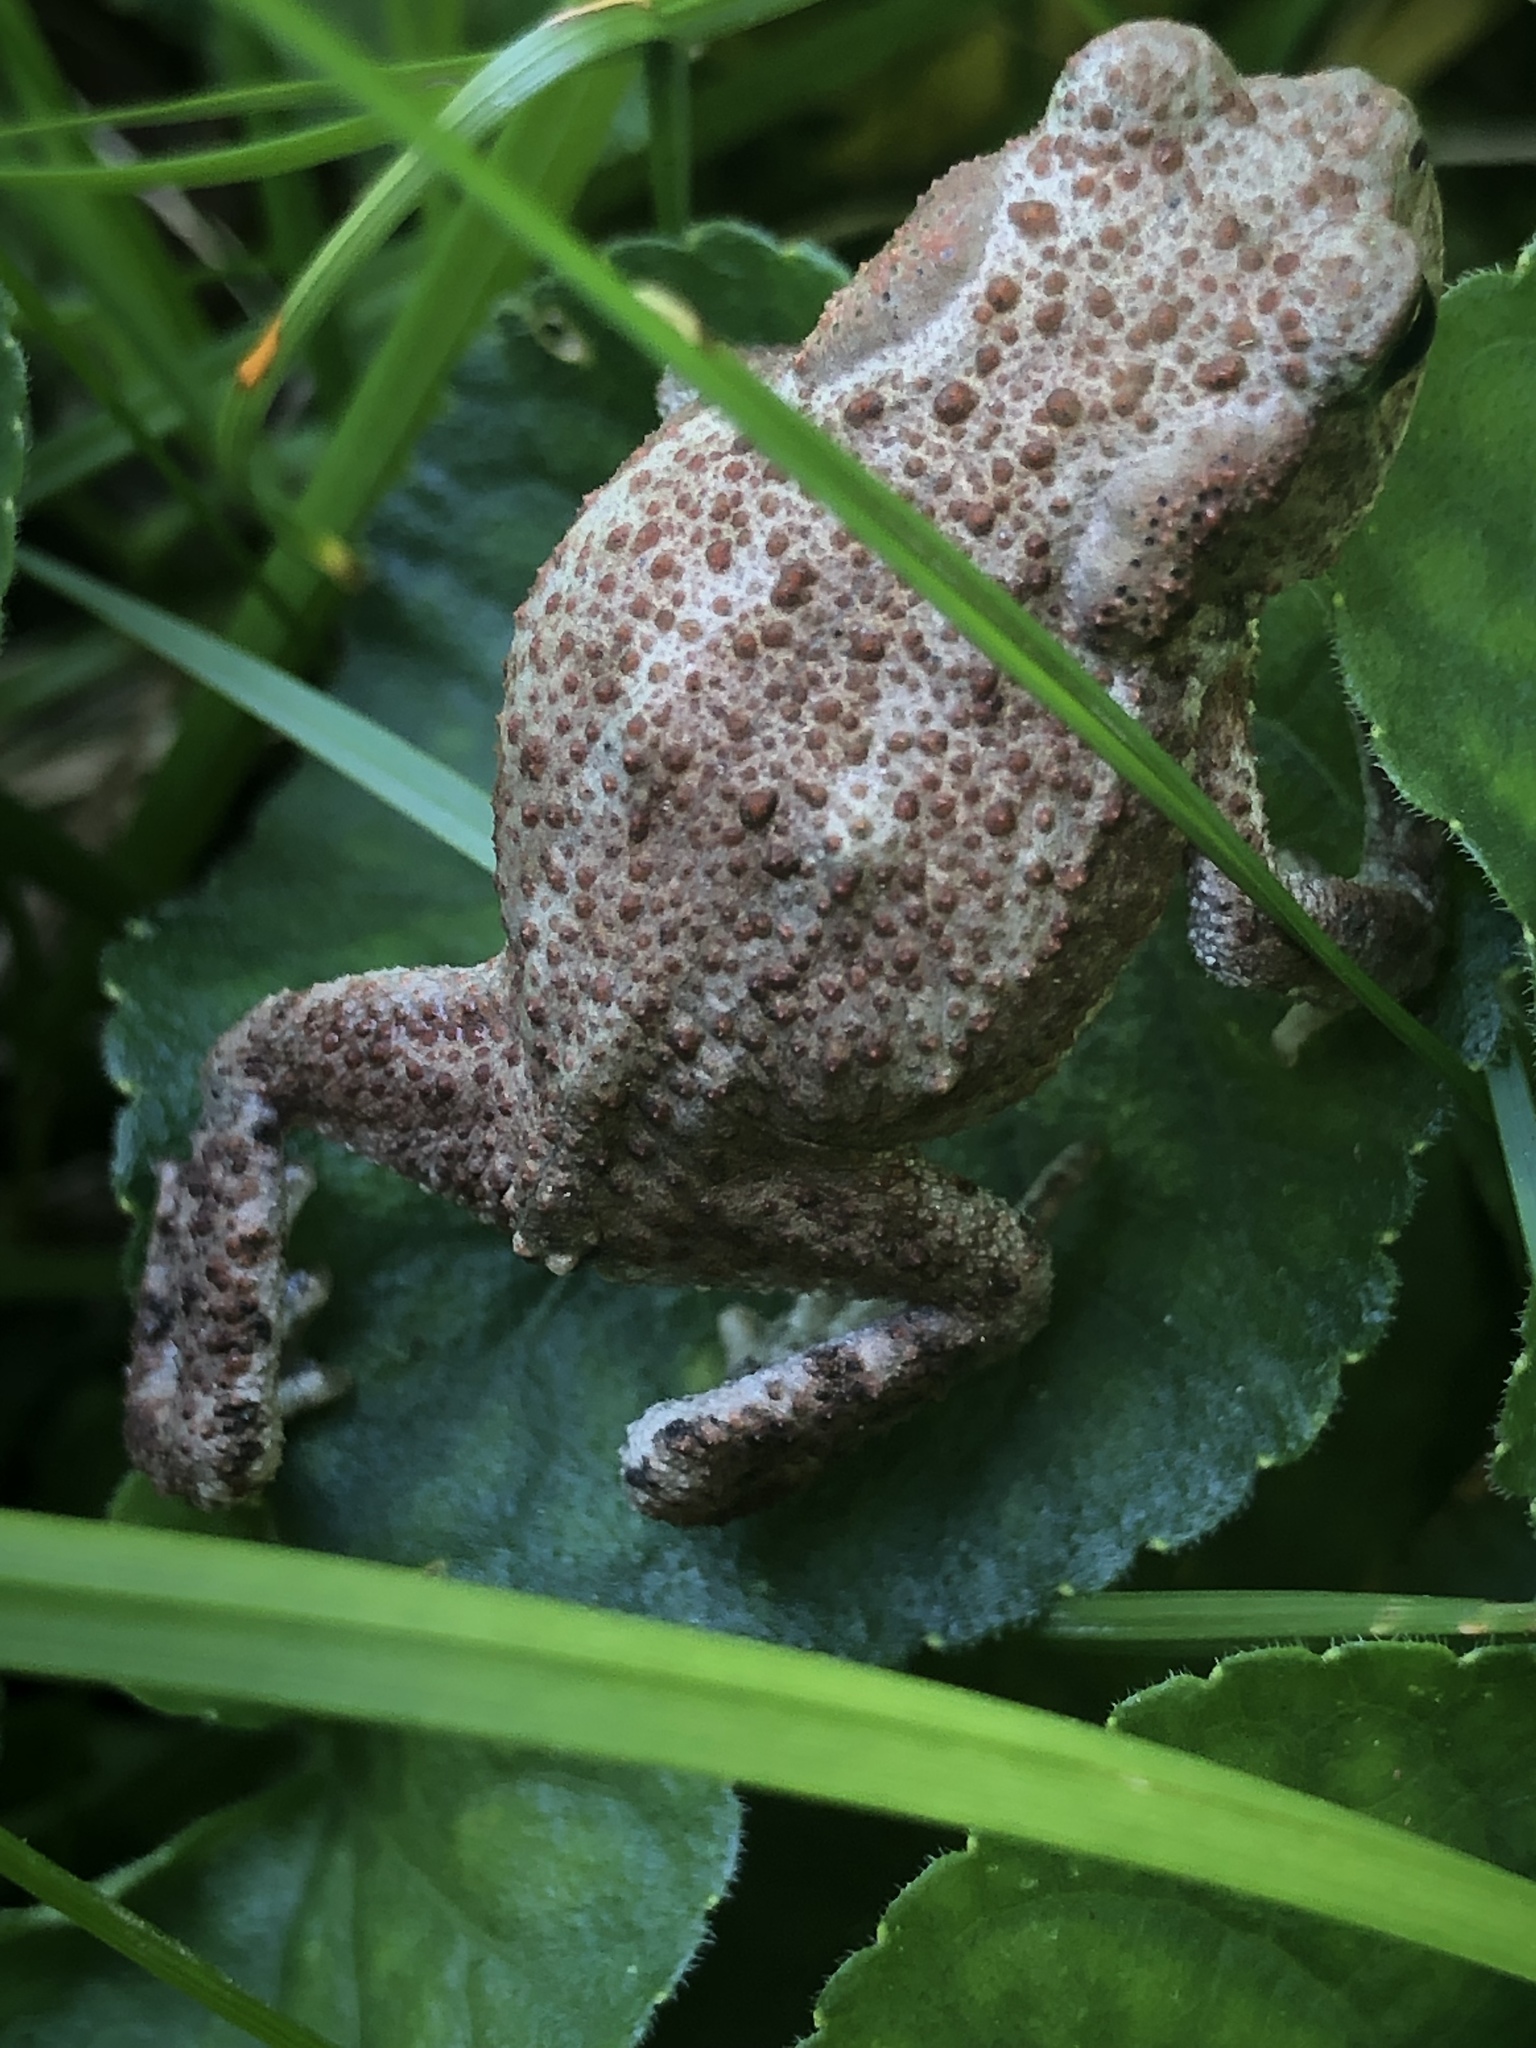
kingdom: Animalia
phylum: Chordata
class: Amphibia
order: Anura
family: Bufonidae
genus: Bufo
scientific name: Bufo bufo
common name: Common toad
